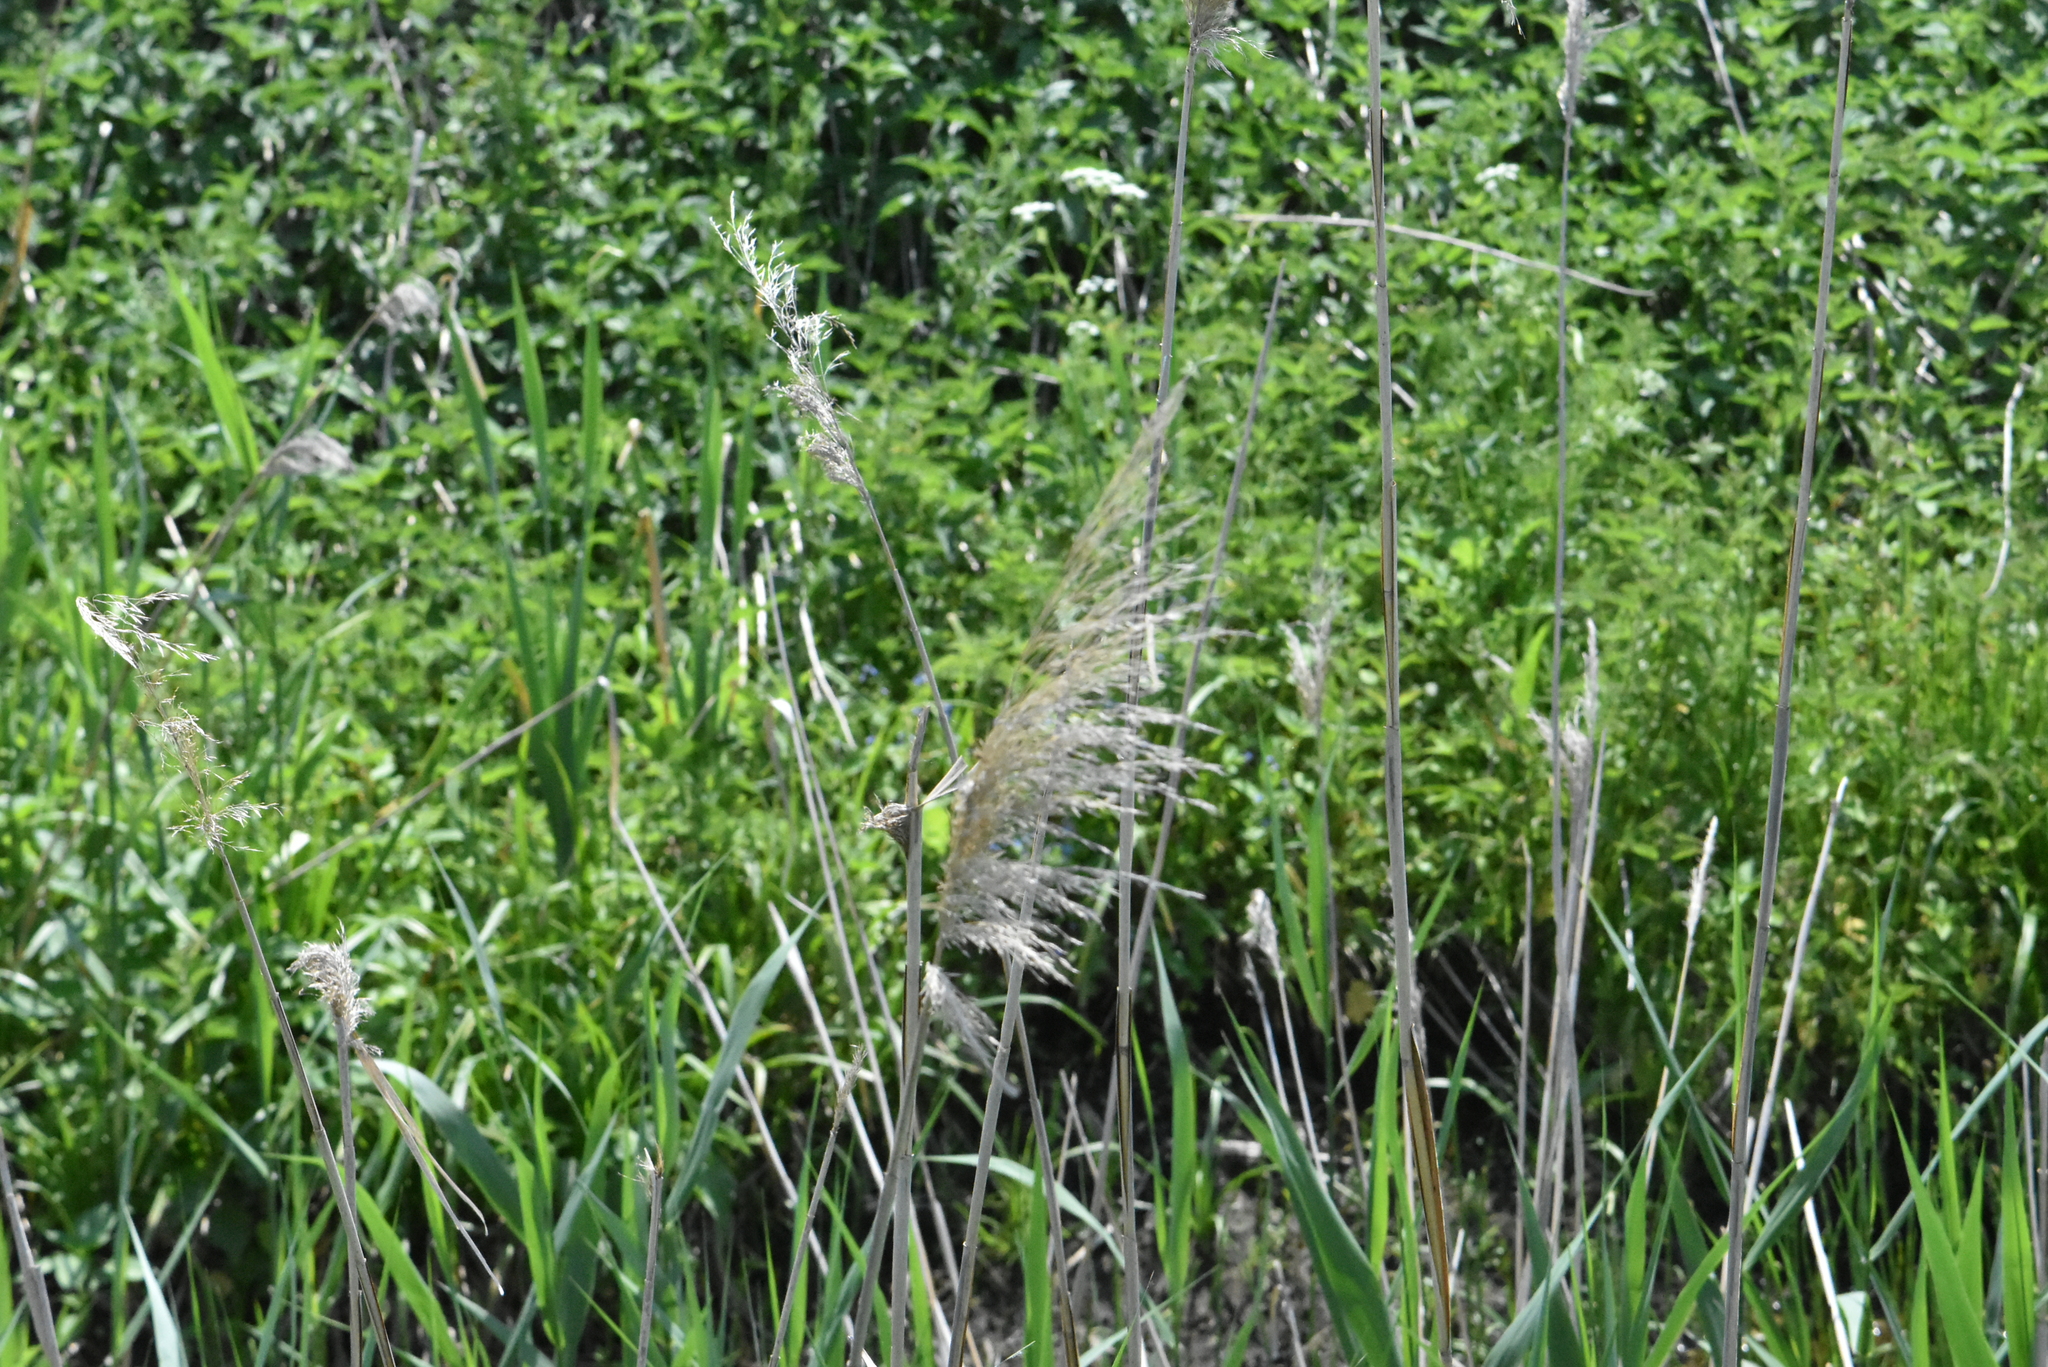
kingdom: Plantae
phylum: Tracheophyta
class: Liliopsida
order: Poales
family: Poaceae
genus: Phragmites
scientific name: Phragmites australis
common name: Common reed
